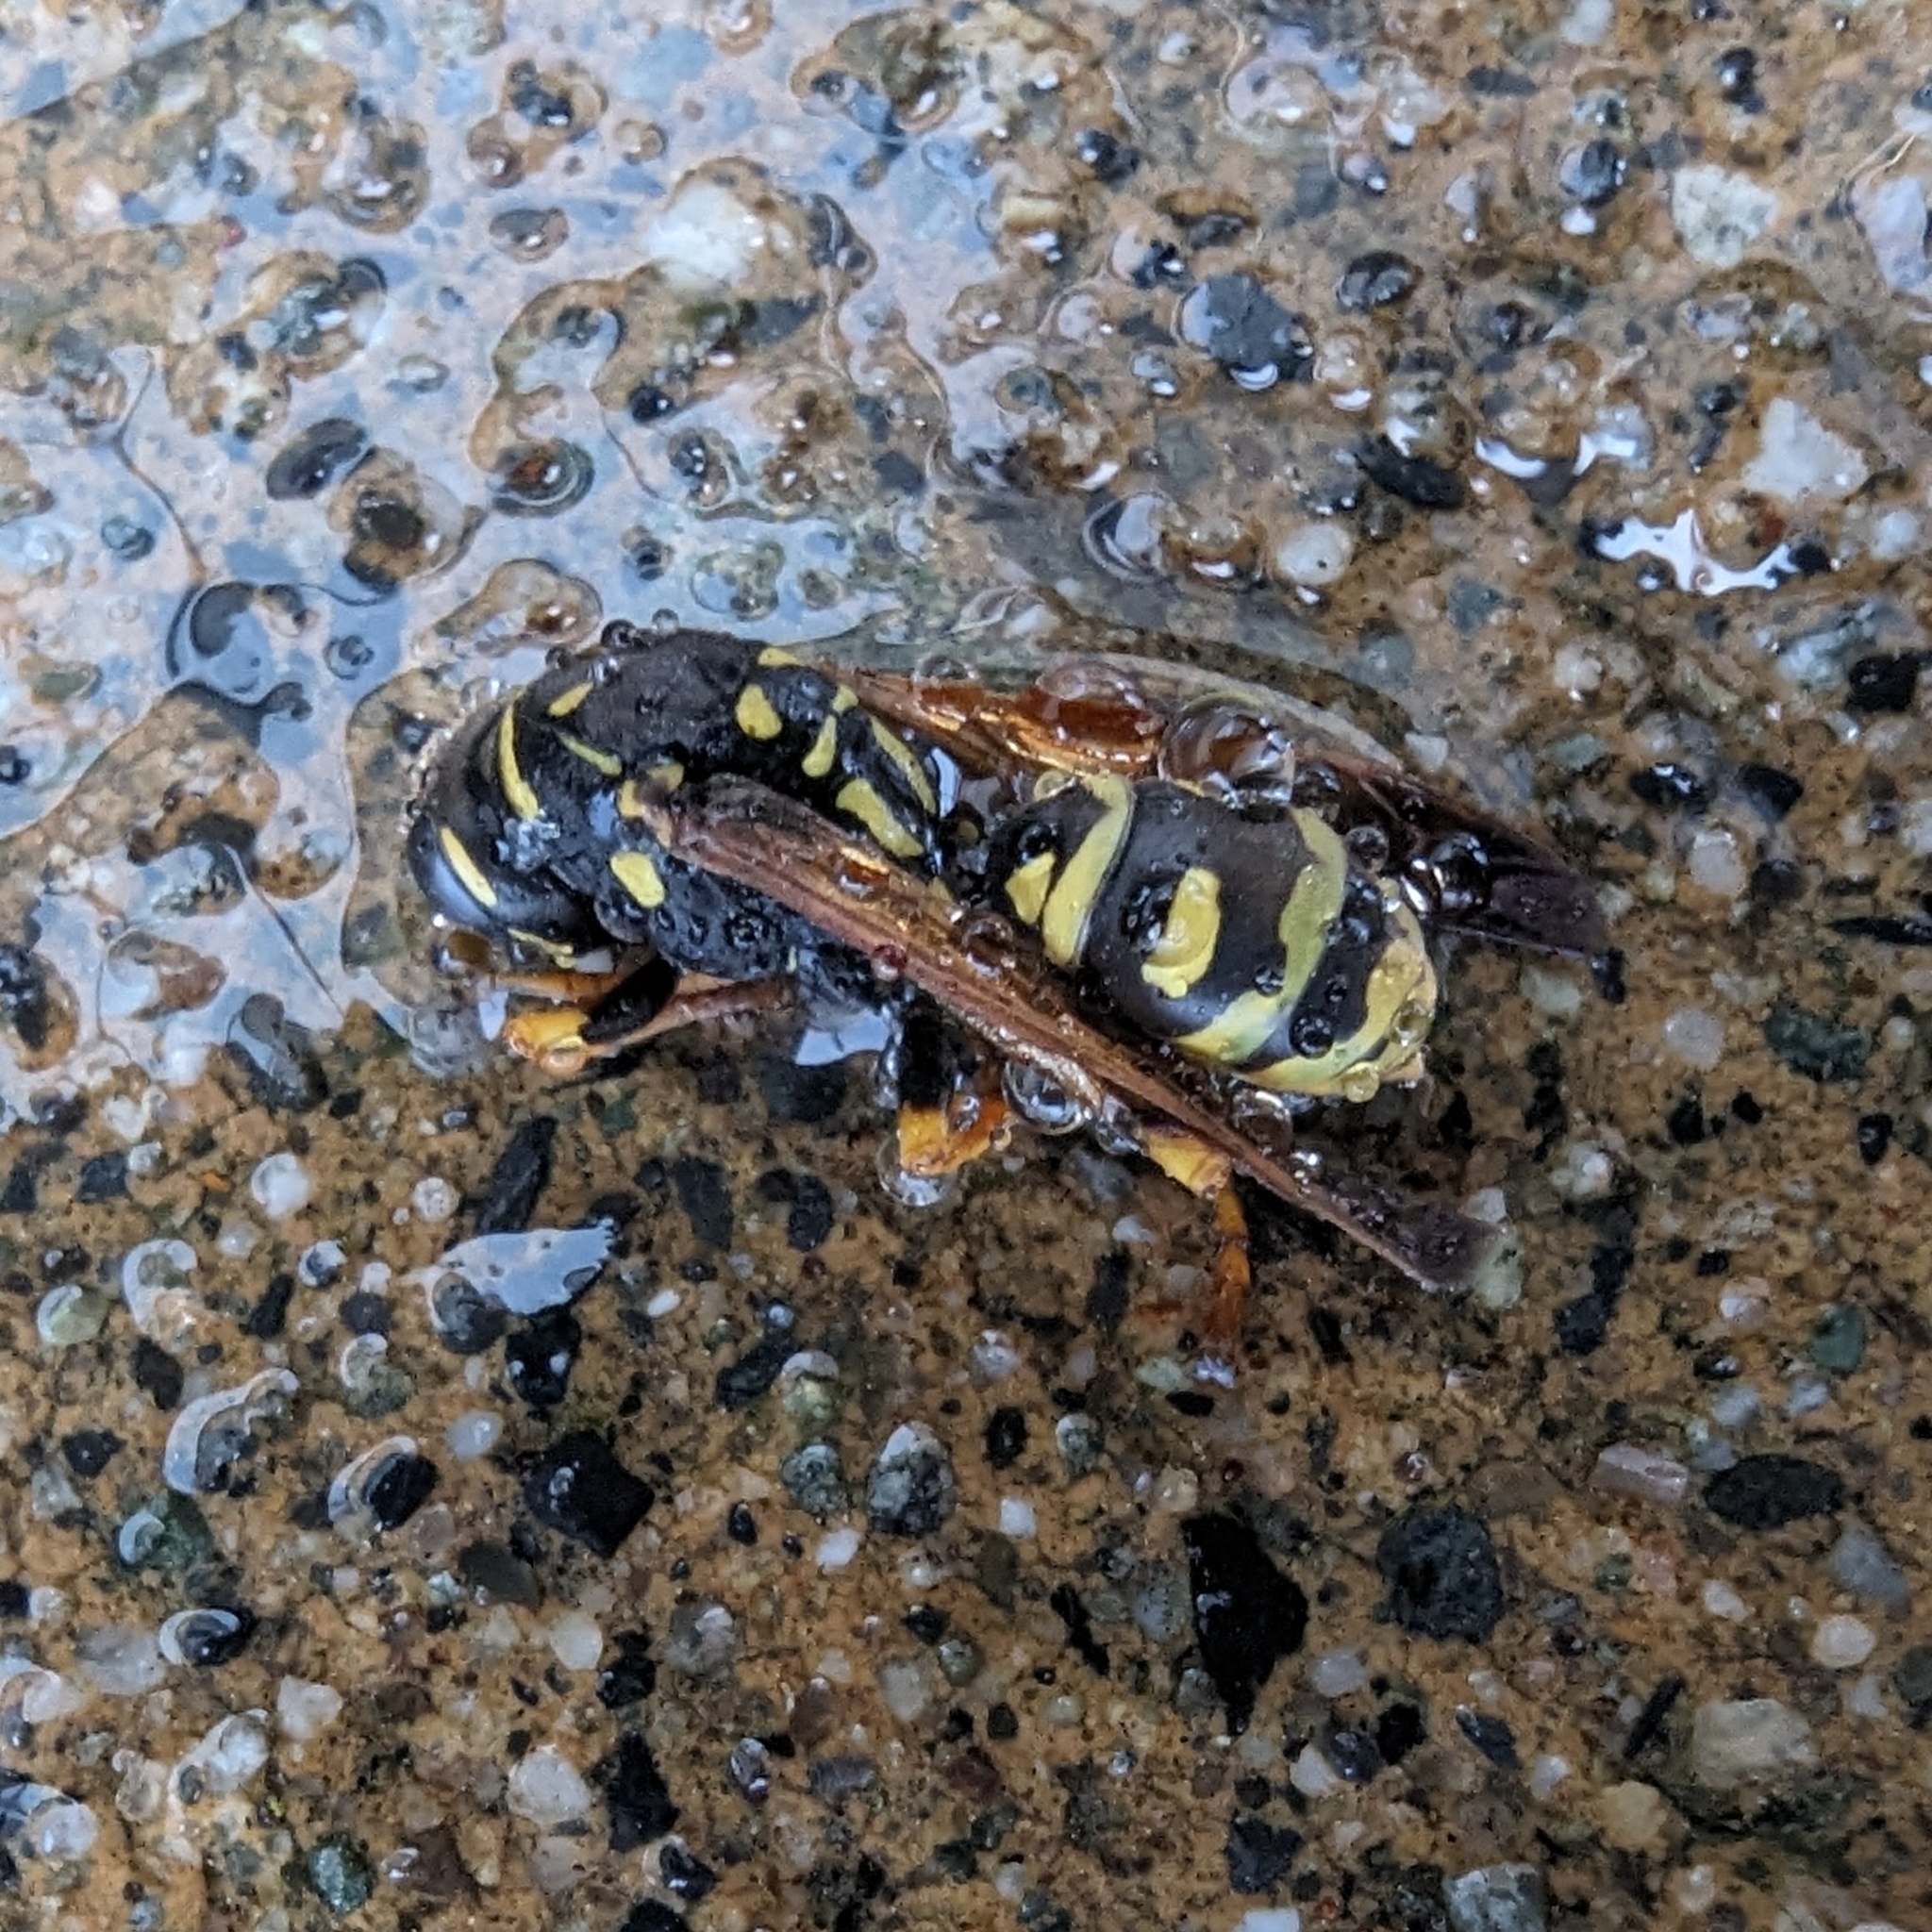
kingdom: Animalia
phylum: Arthropoda
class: Insecta
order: Hymenoptera
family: Eumenidae
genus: Polistes
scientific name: Polistes dominula
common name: Paper wasp
